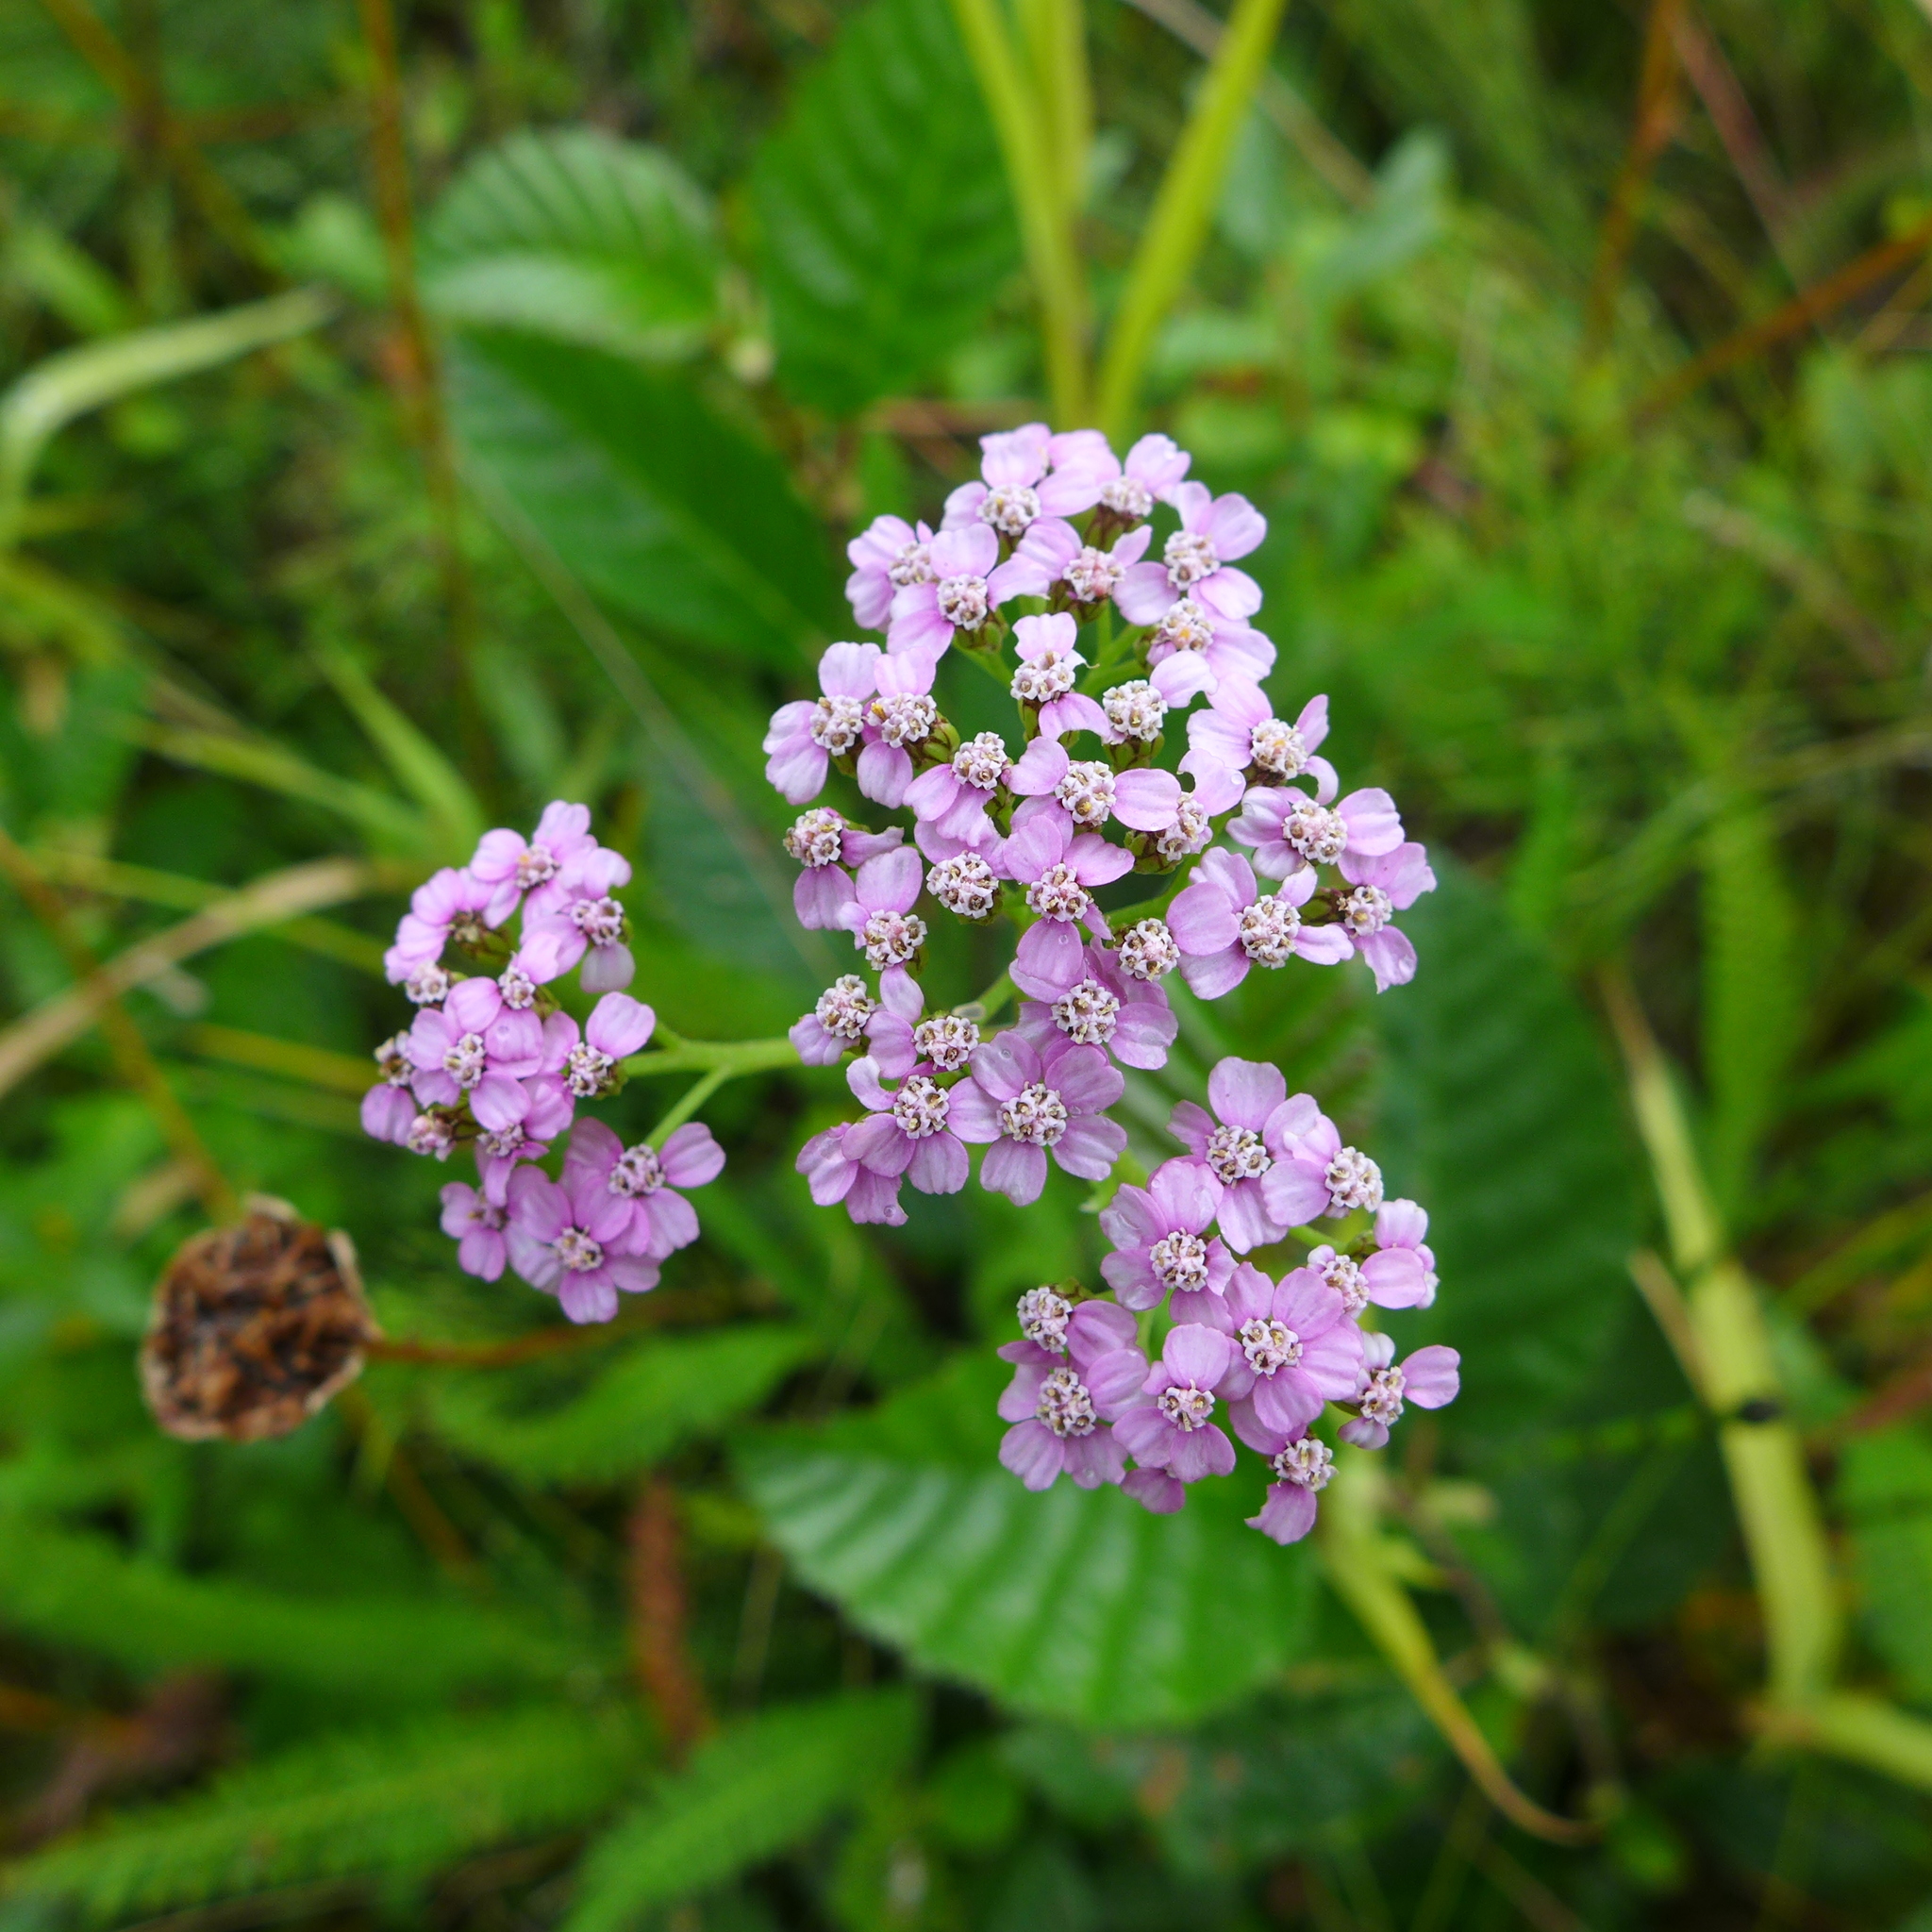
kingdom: Plantae
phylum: Tracheophyta
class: Magnoliopsida
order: Asterales
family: Asteraceae
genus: Achillea
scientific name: Achillea millefolium
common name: Yarrow
